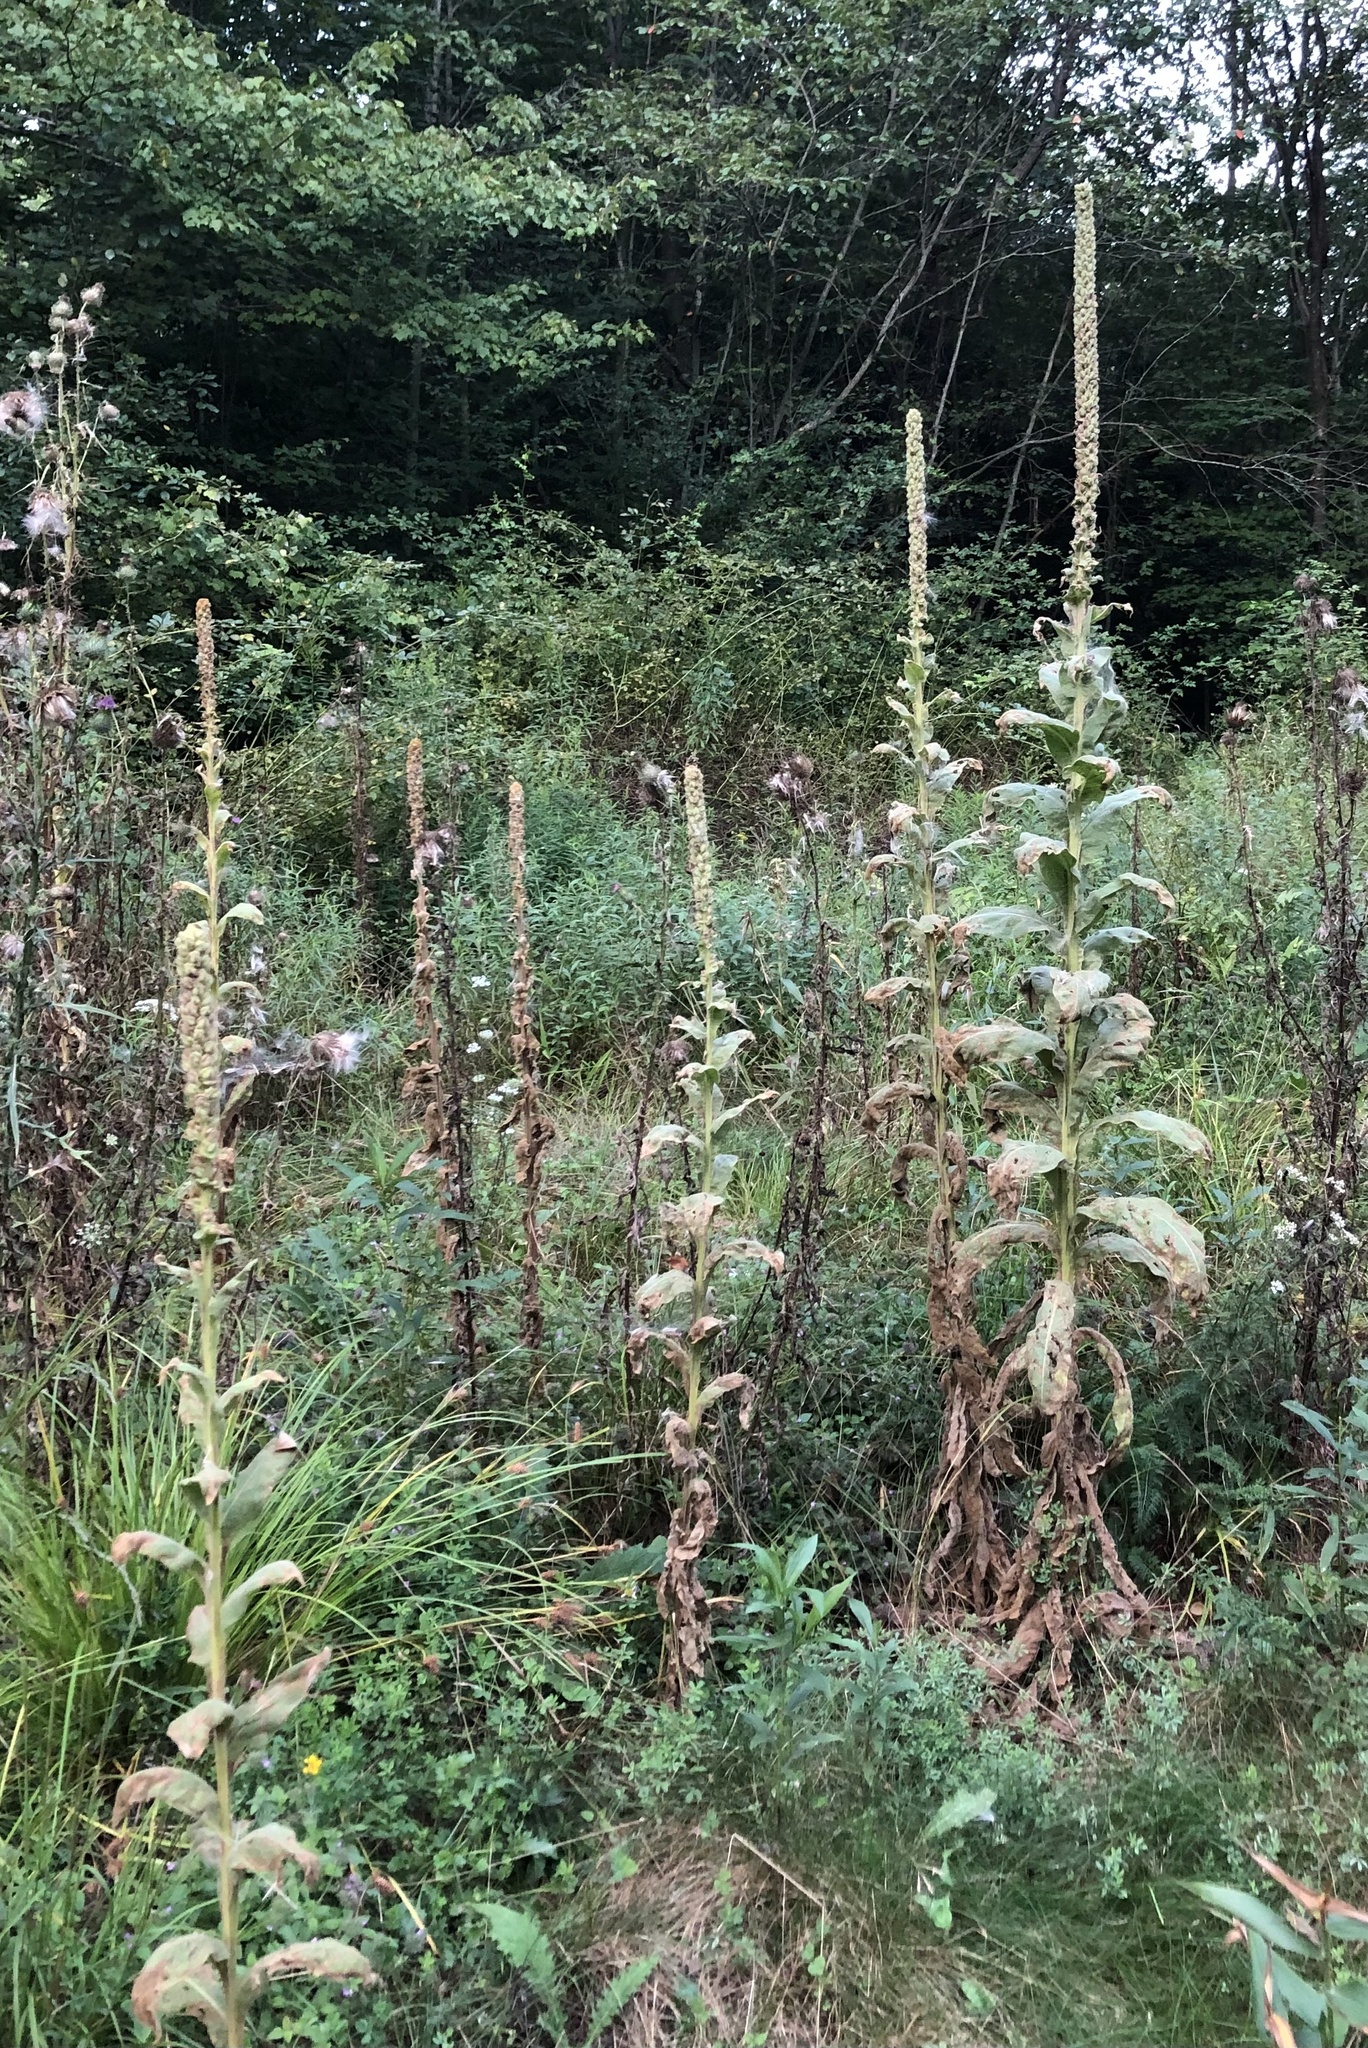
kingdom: Plantae
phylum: Tracheophyta
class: Magnoliopsida
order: Lamiales
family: Scrophulariaceae
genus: Verbascum
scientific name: Verbascum thapsus
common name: Common mullein
